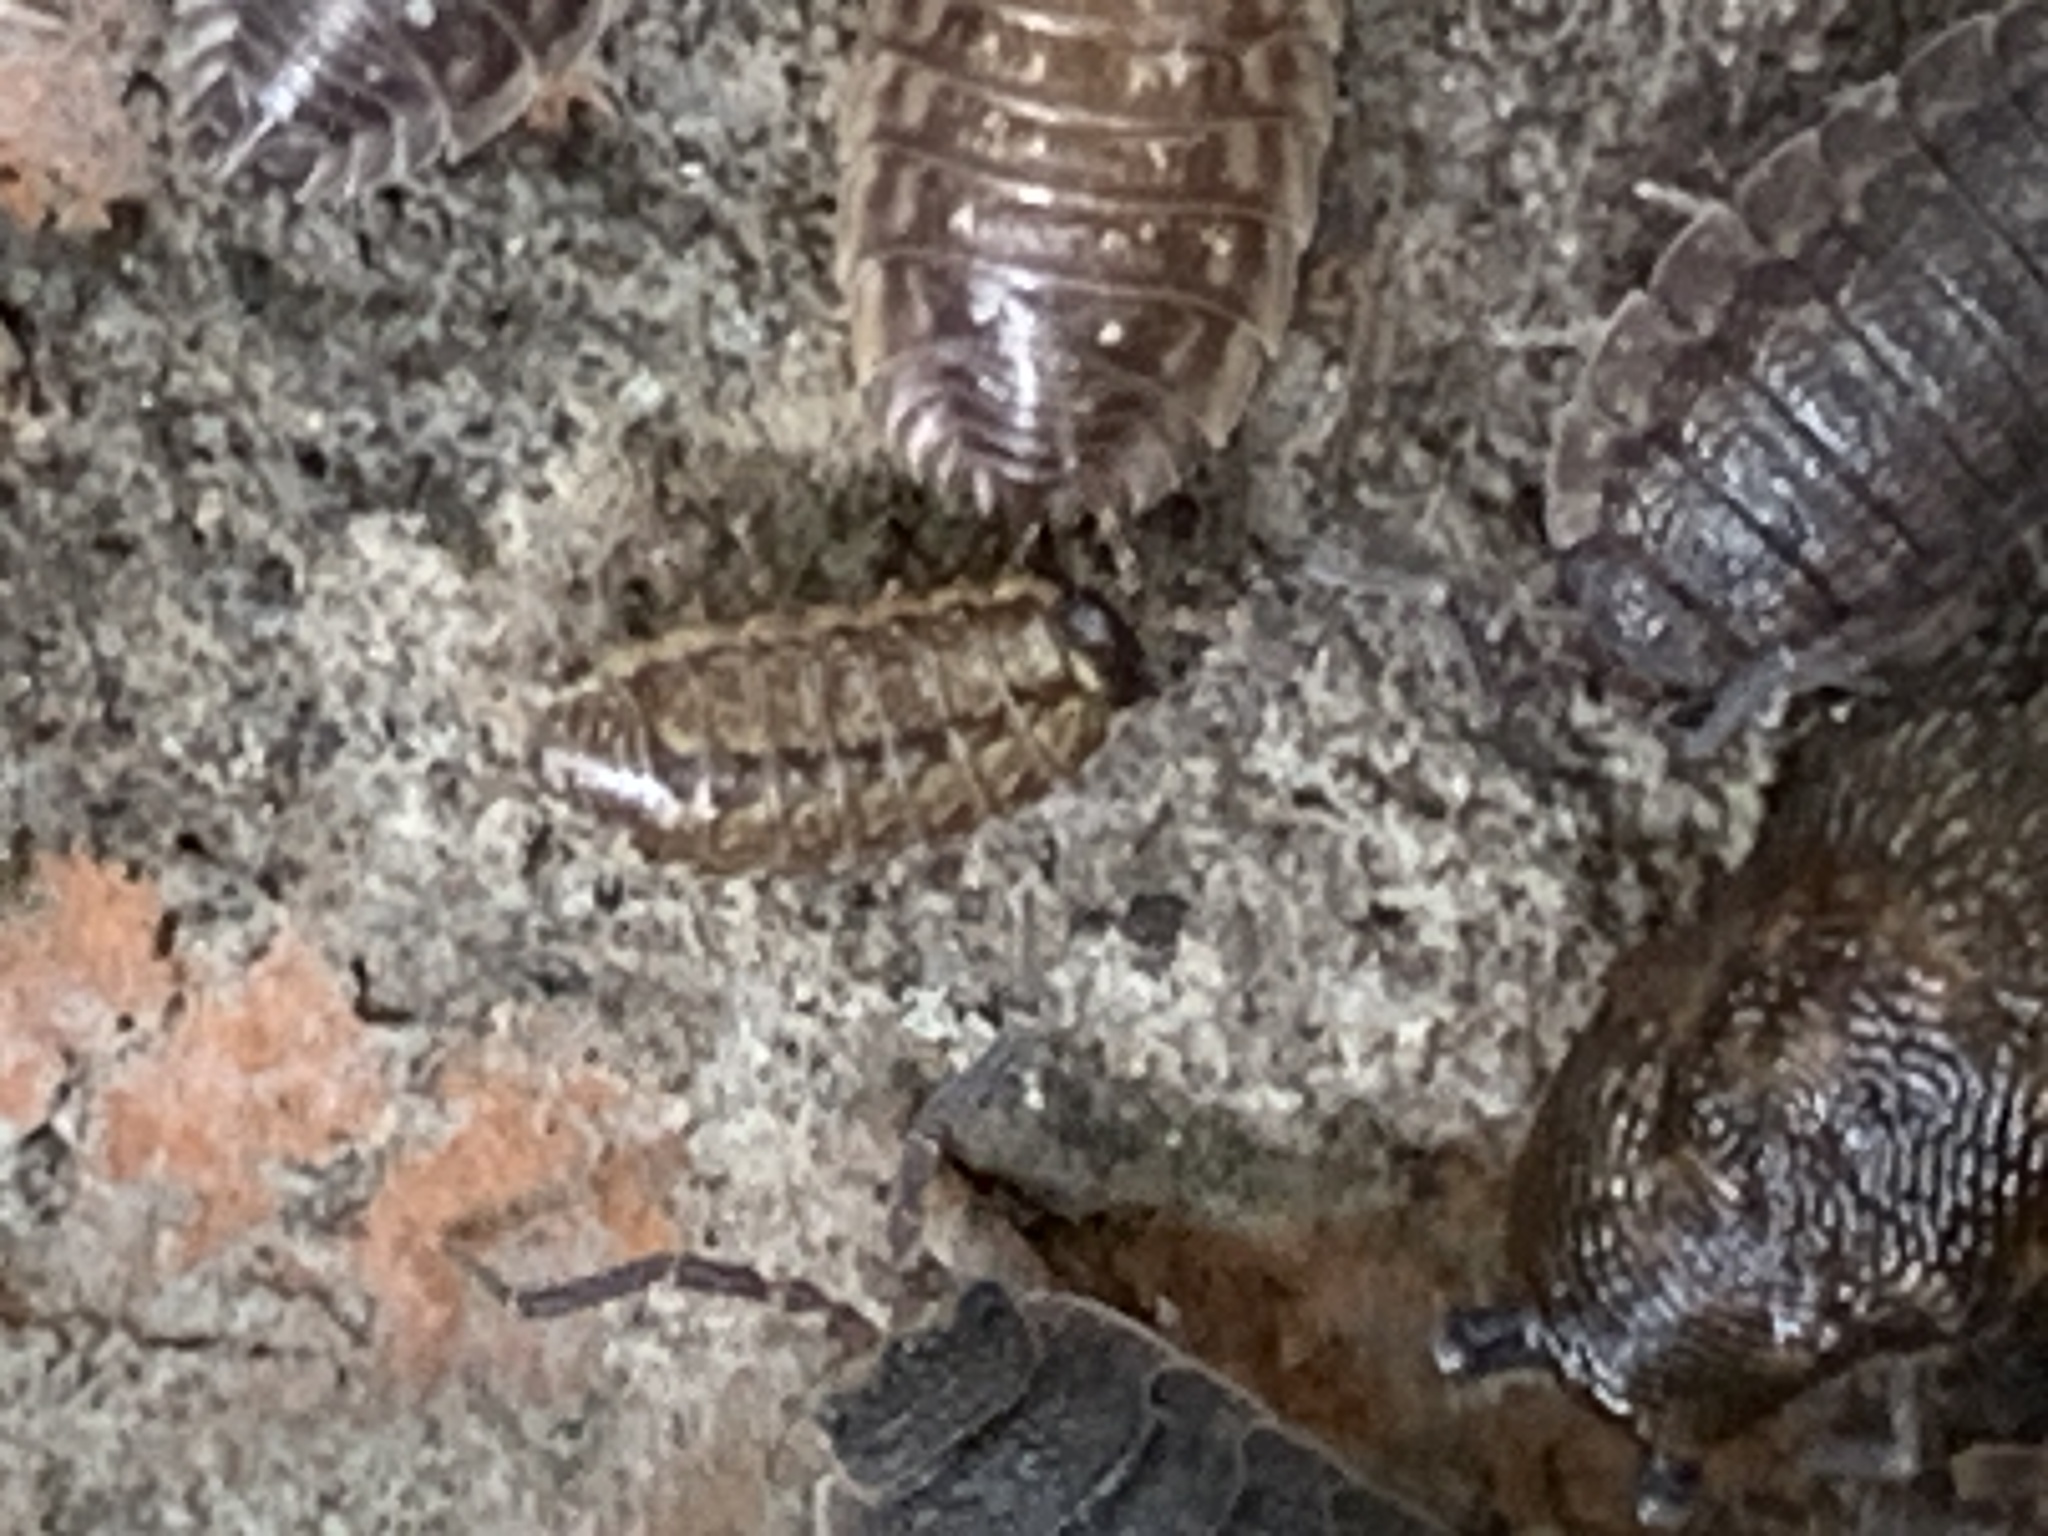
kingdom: Animalia
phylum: Arthropoda
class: Malacostraca
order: Isopoda
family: Philosciidae
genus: Philoscia
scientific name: Philoscia muscorum
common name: Common striped woodlouse
